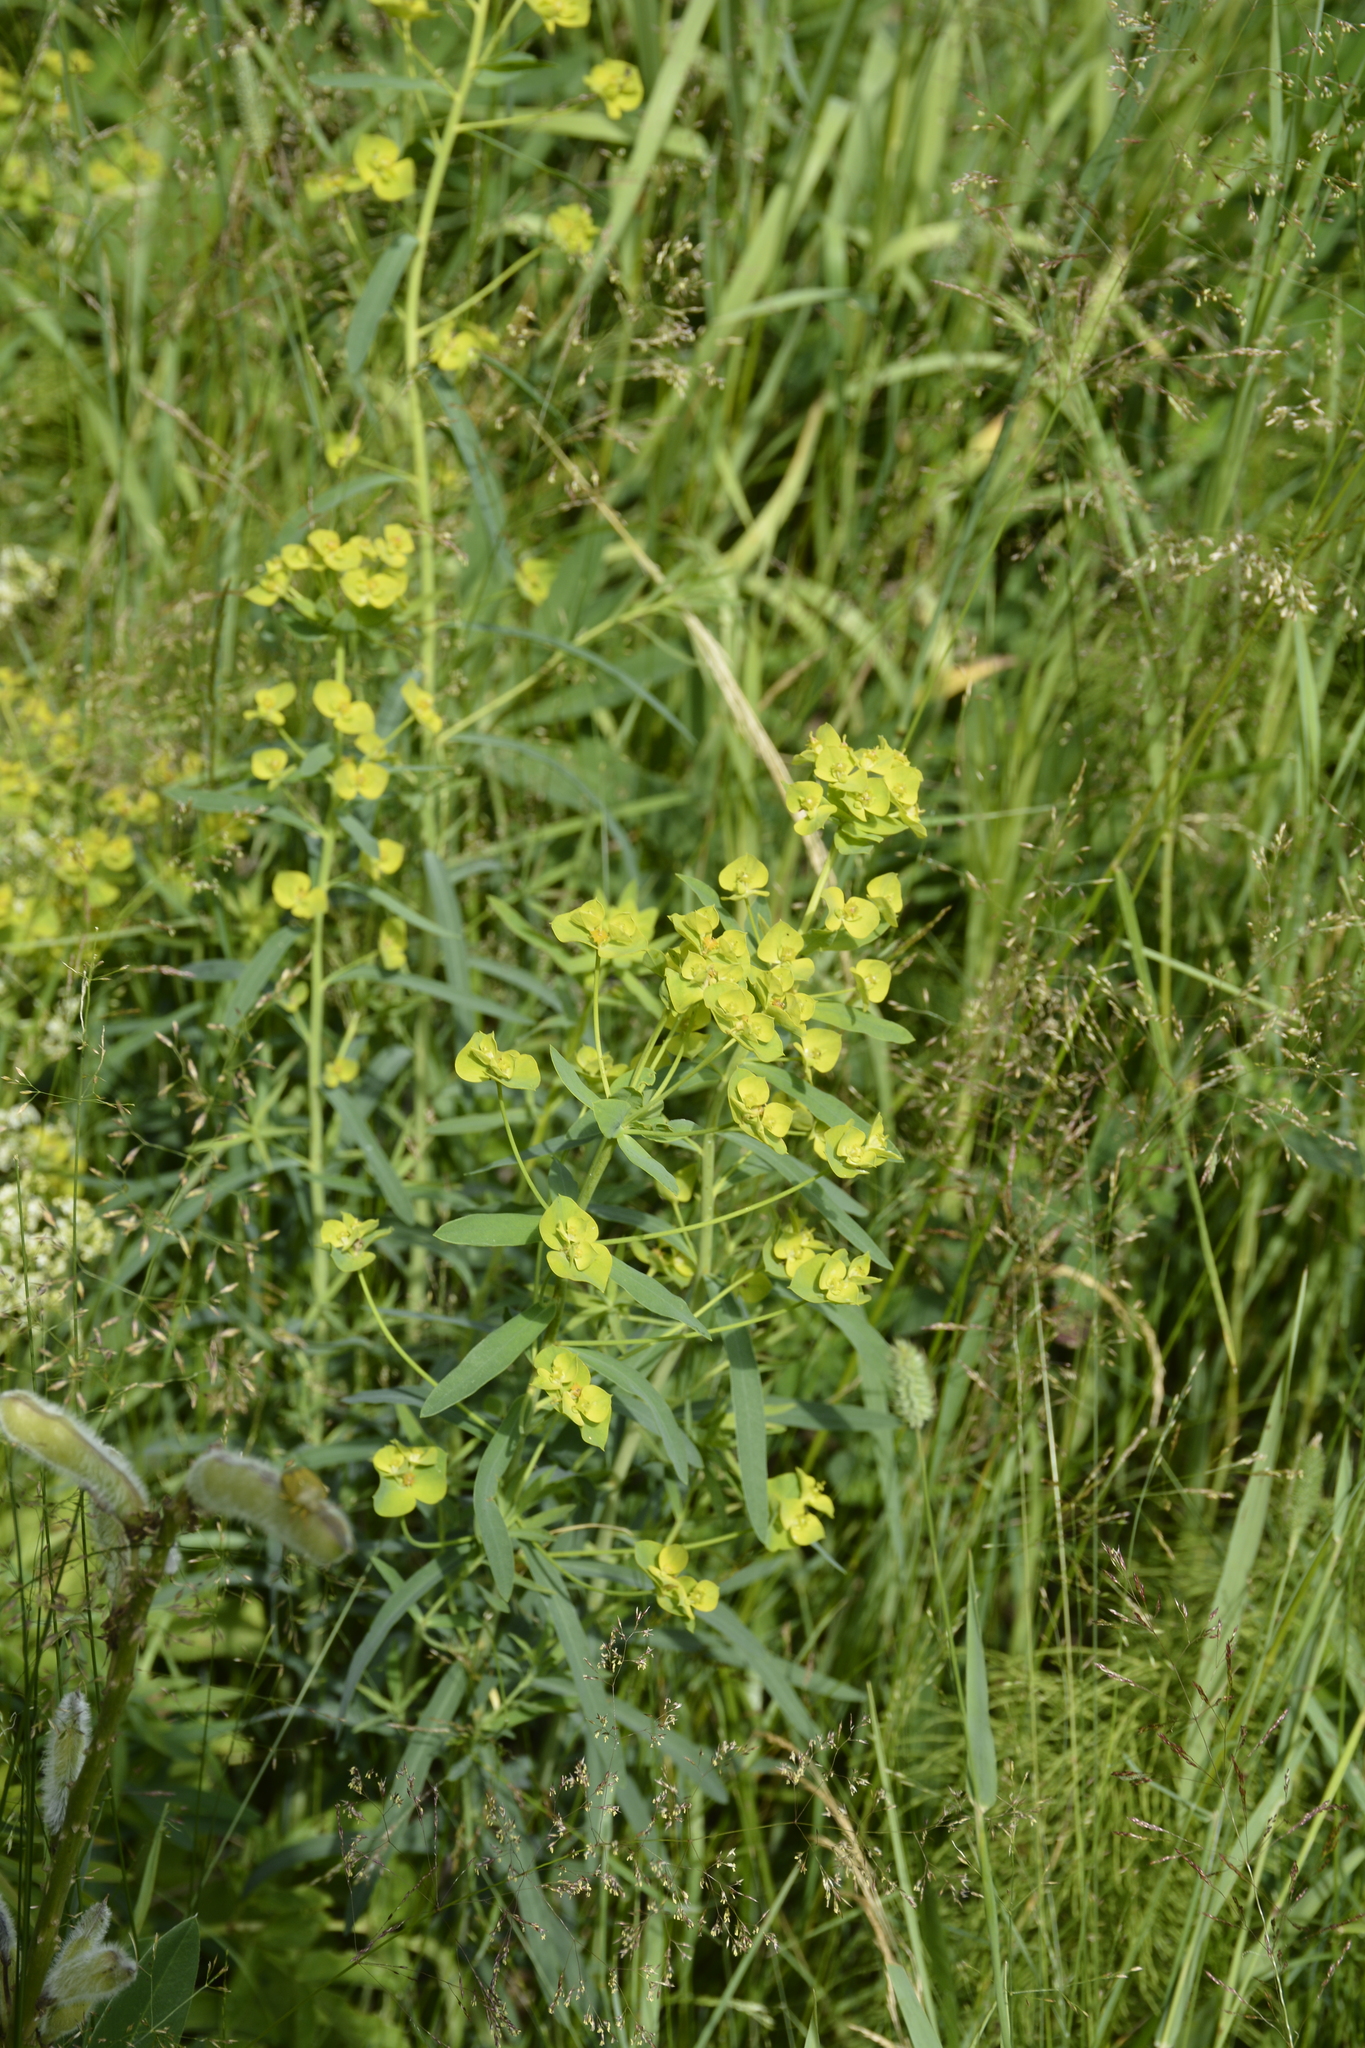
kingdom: Plantae
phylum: Tracheophyta
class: Magnoliopsida
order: Malpighiales
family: Euphorbiaceae
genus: Euphorbia
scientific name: Euphorbia virgata
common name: Leafy spurge
